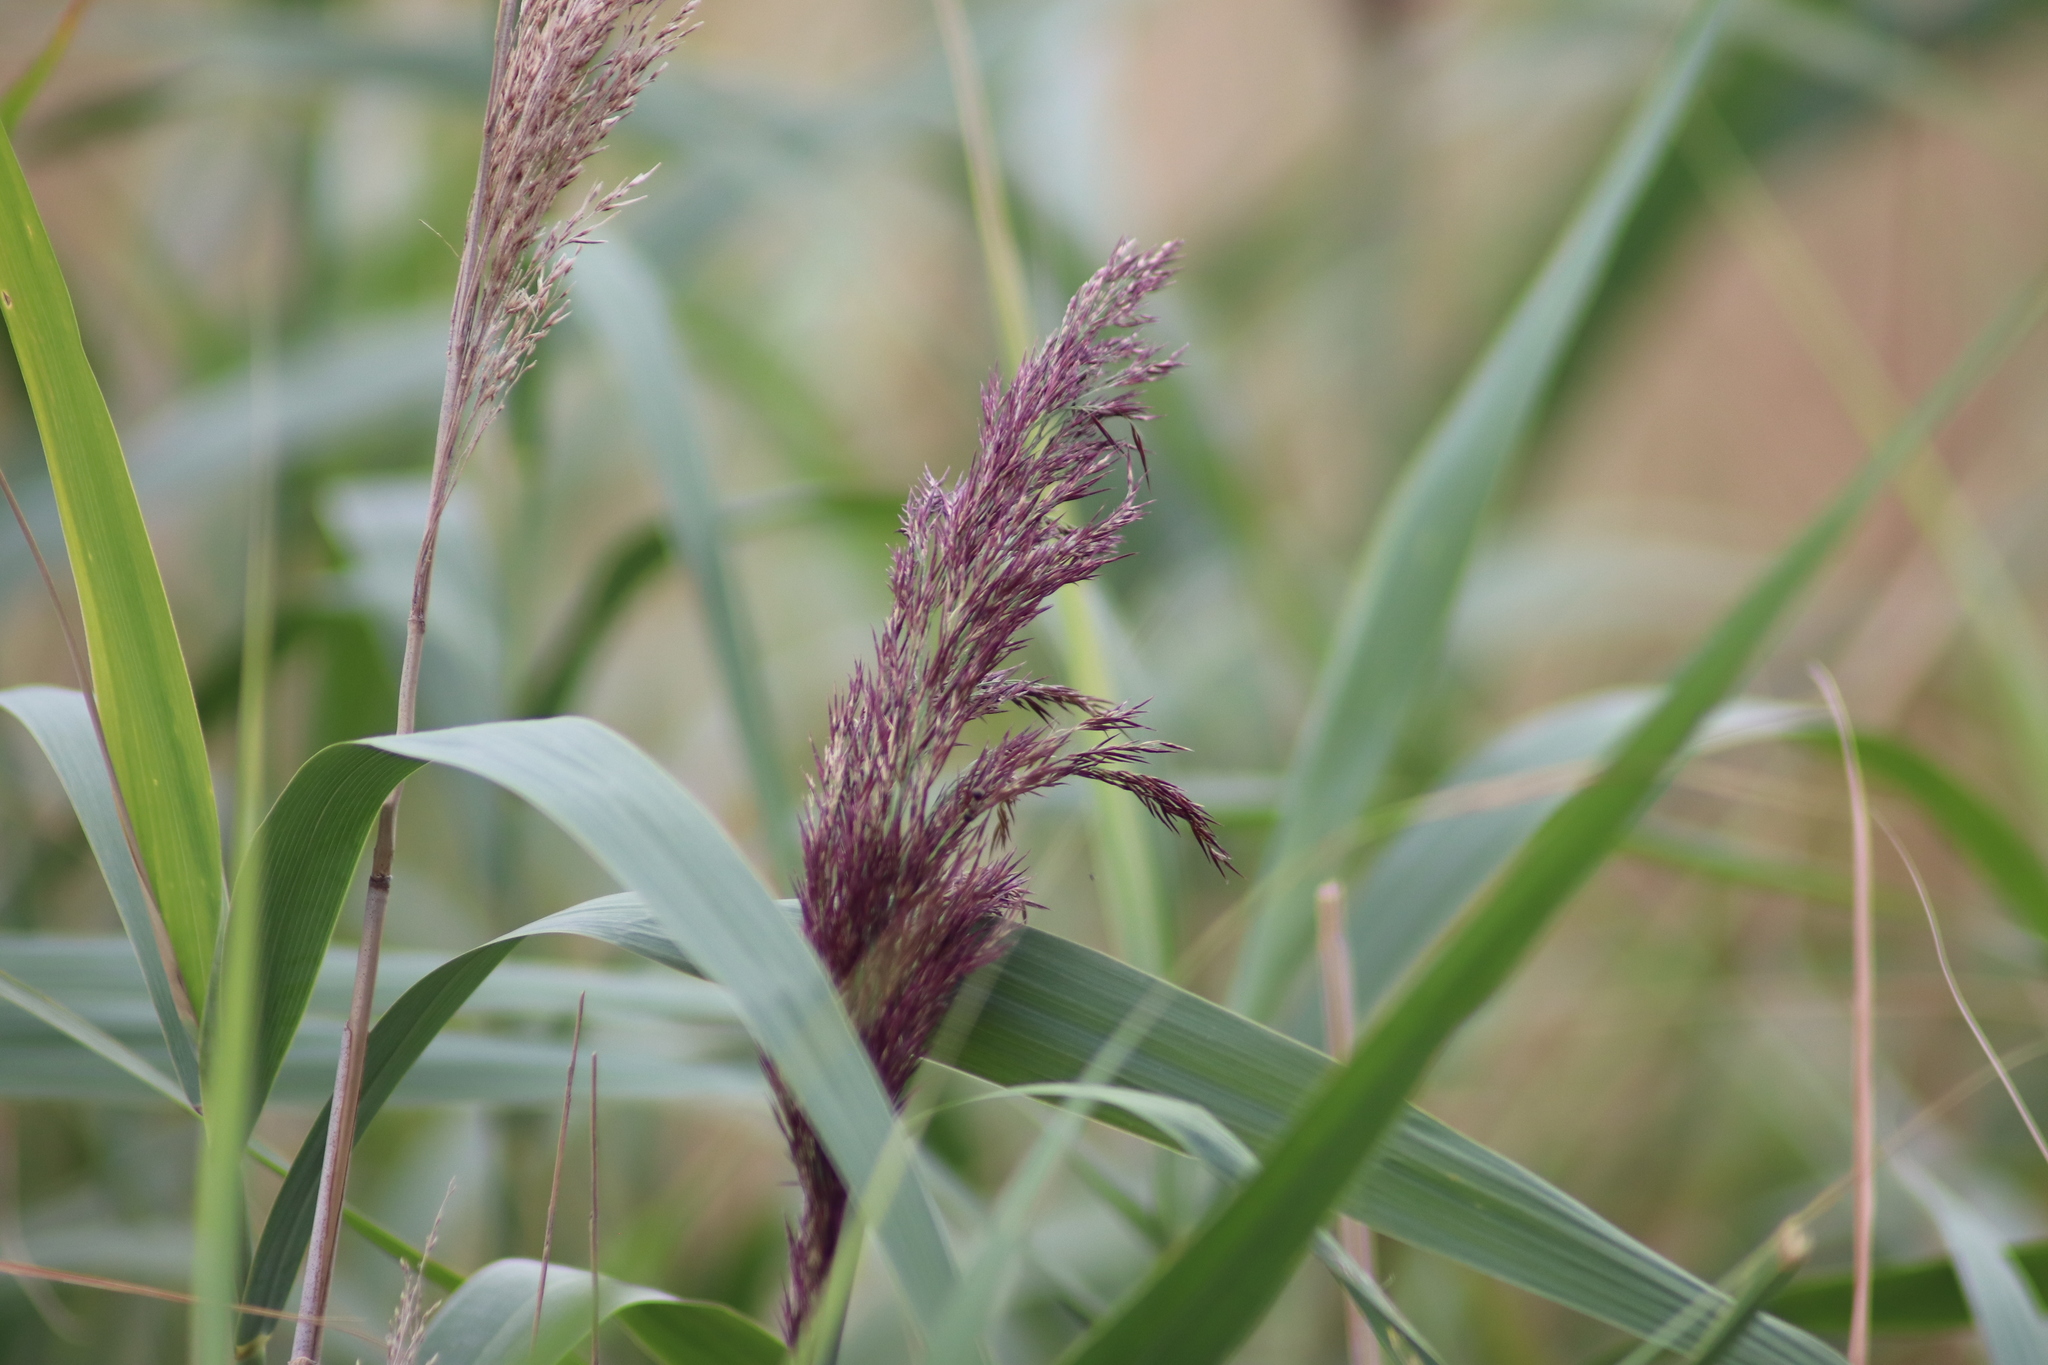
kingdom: Plantae
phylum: Tracheophyta
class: Liliopsida
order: Poales
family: Poaceae
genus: Phragmites
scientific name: Phragmites australis
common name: Common reed
